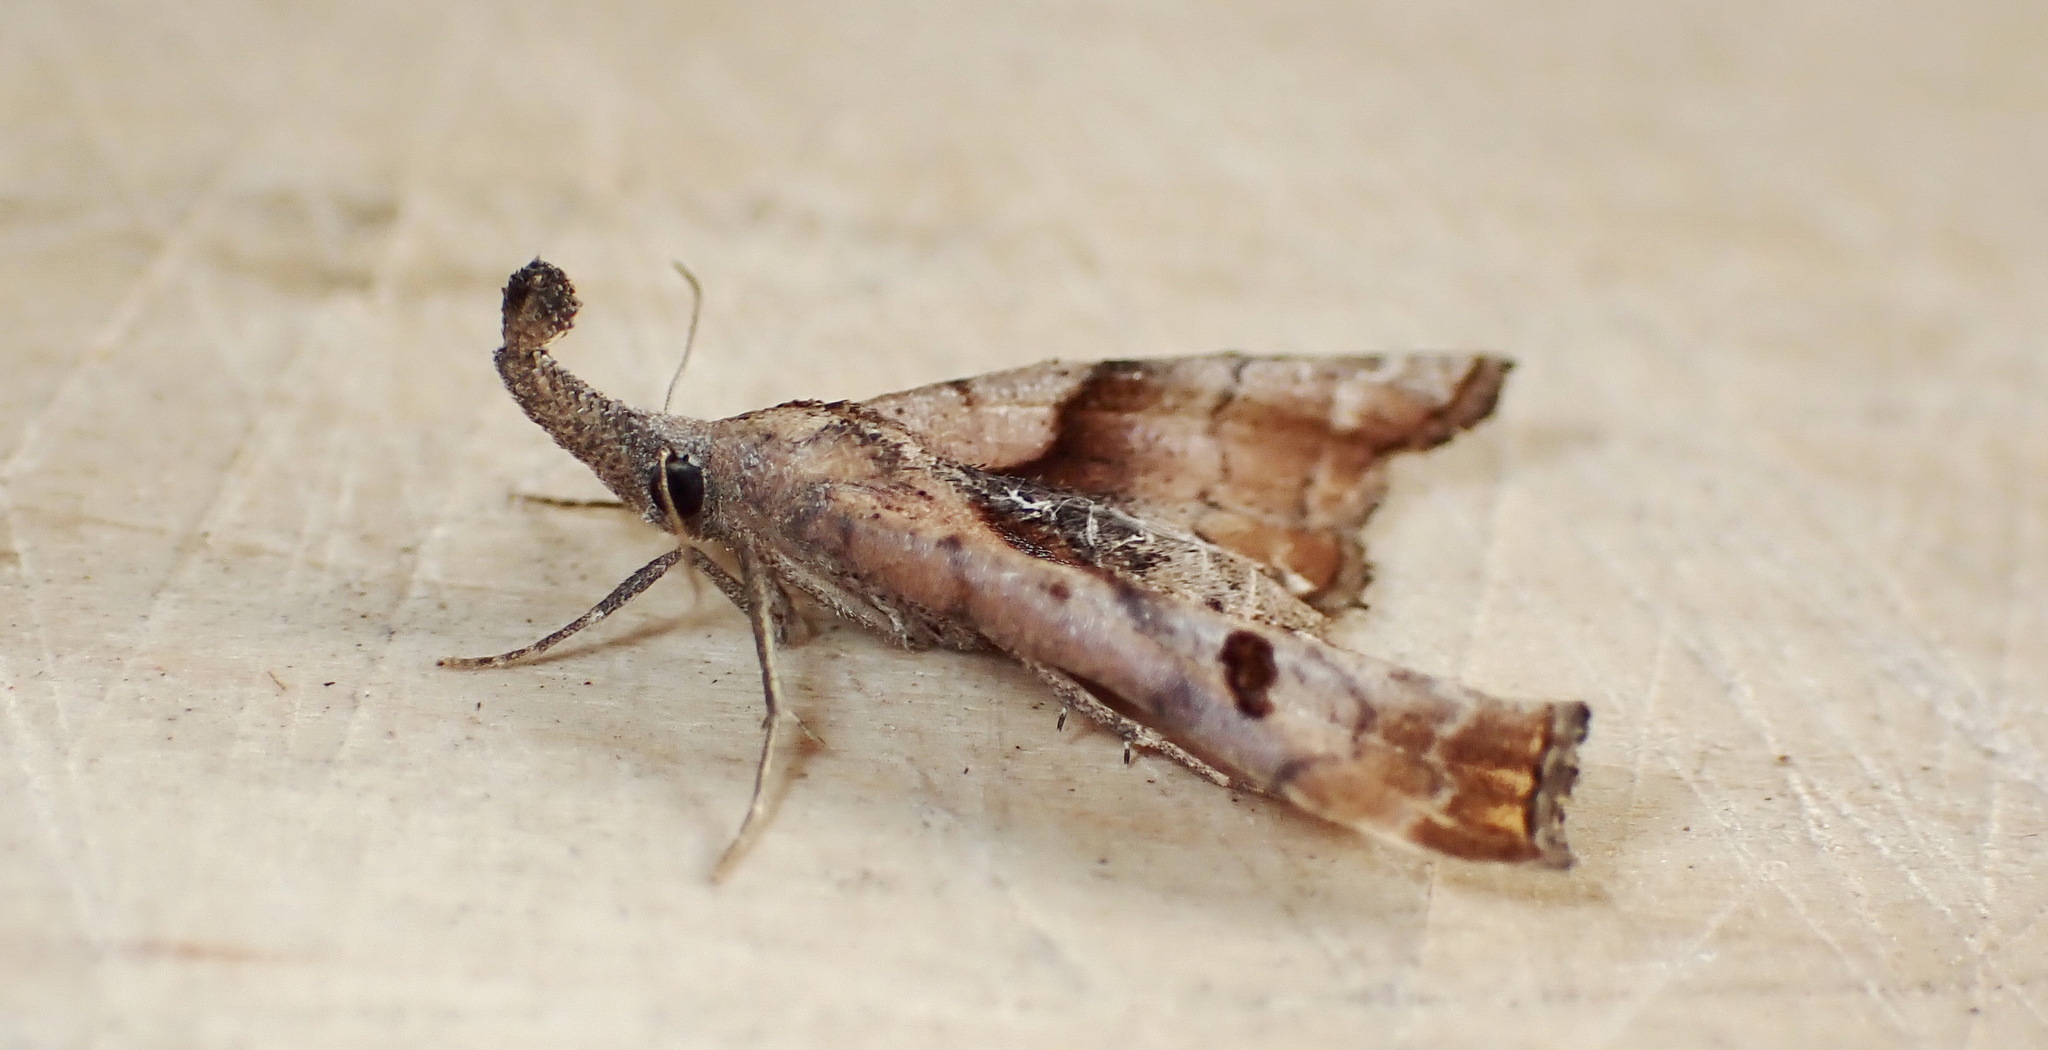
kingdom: Animalia
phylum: Arthropoda
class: Insecta
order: Lepidoptera
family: Erebidae
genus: Palthis
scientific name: Palthis angulalis
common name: Dark-spotted palthis moth
